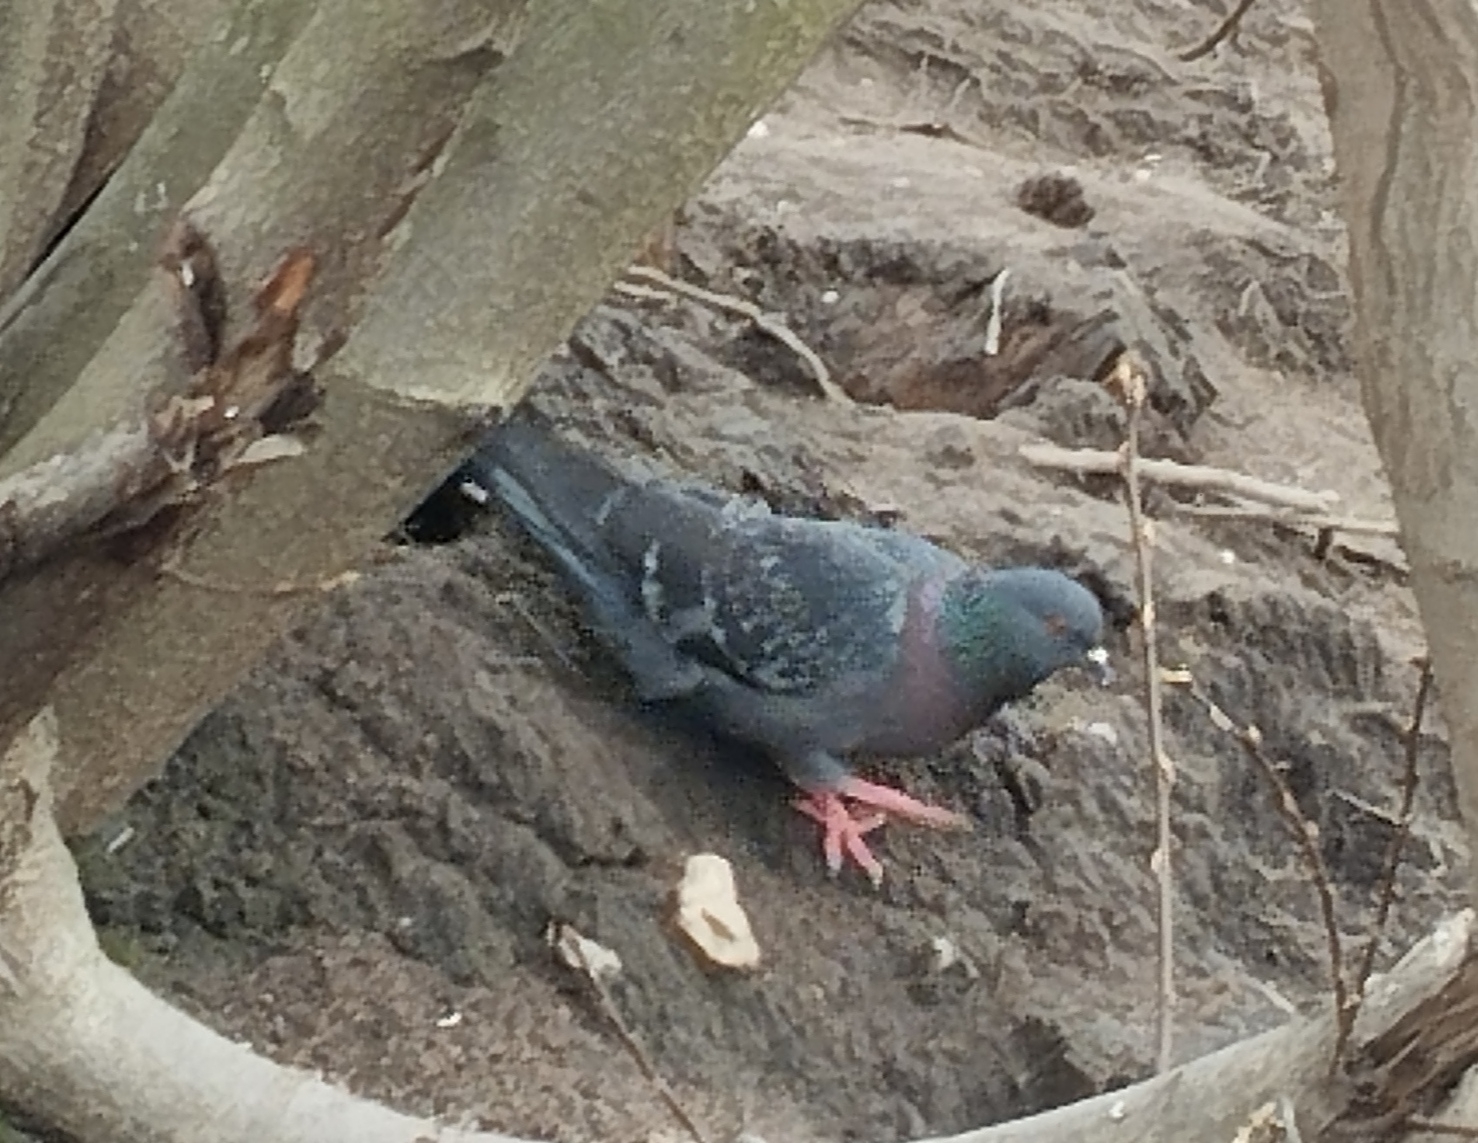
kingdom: Animalia
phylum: Chordata
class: Aves
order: Columbiformes
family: Columbidae
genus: Columba
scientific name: Columba livia
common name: Rock pigeon
